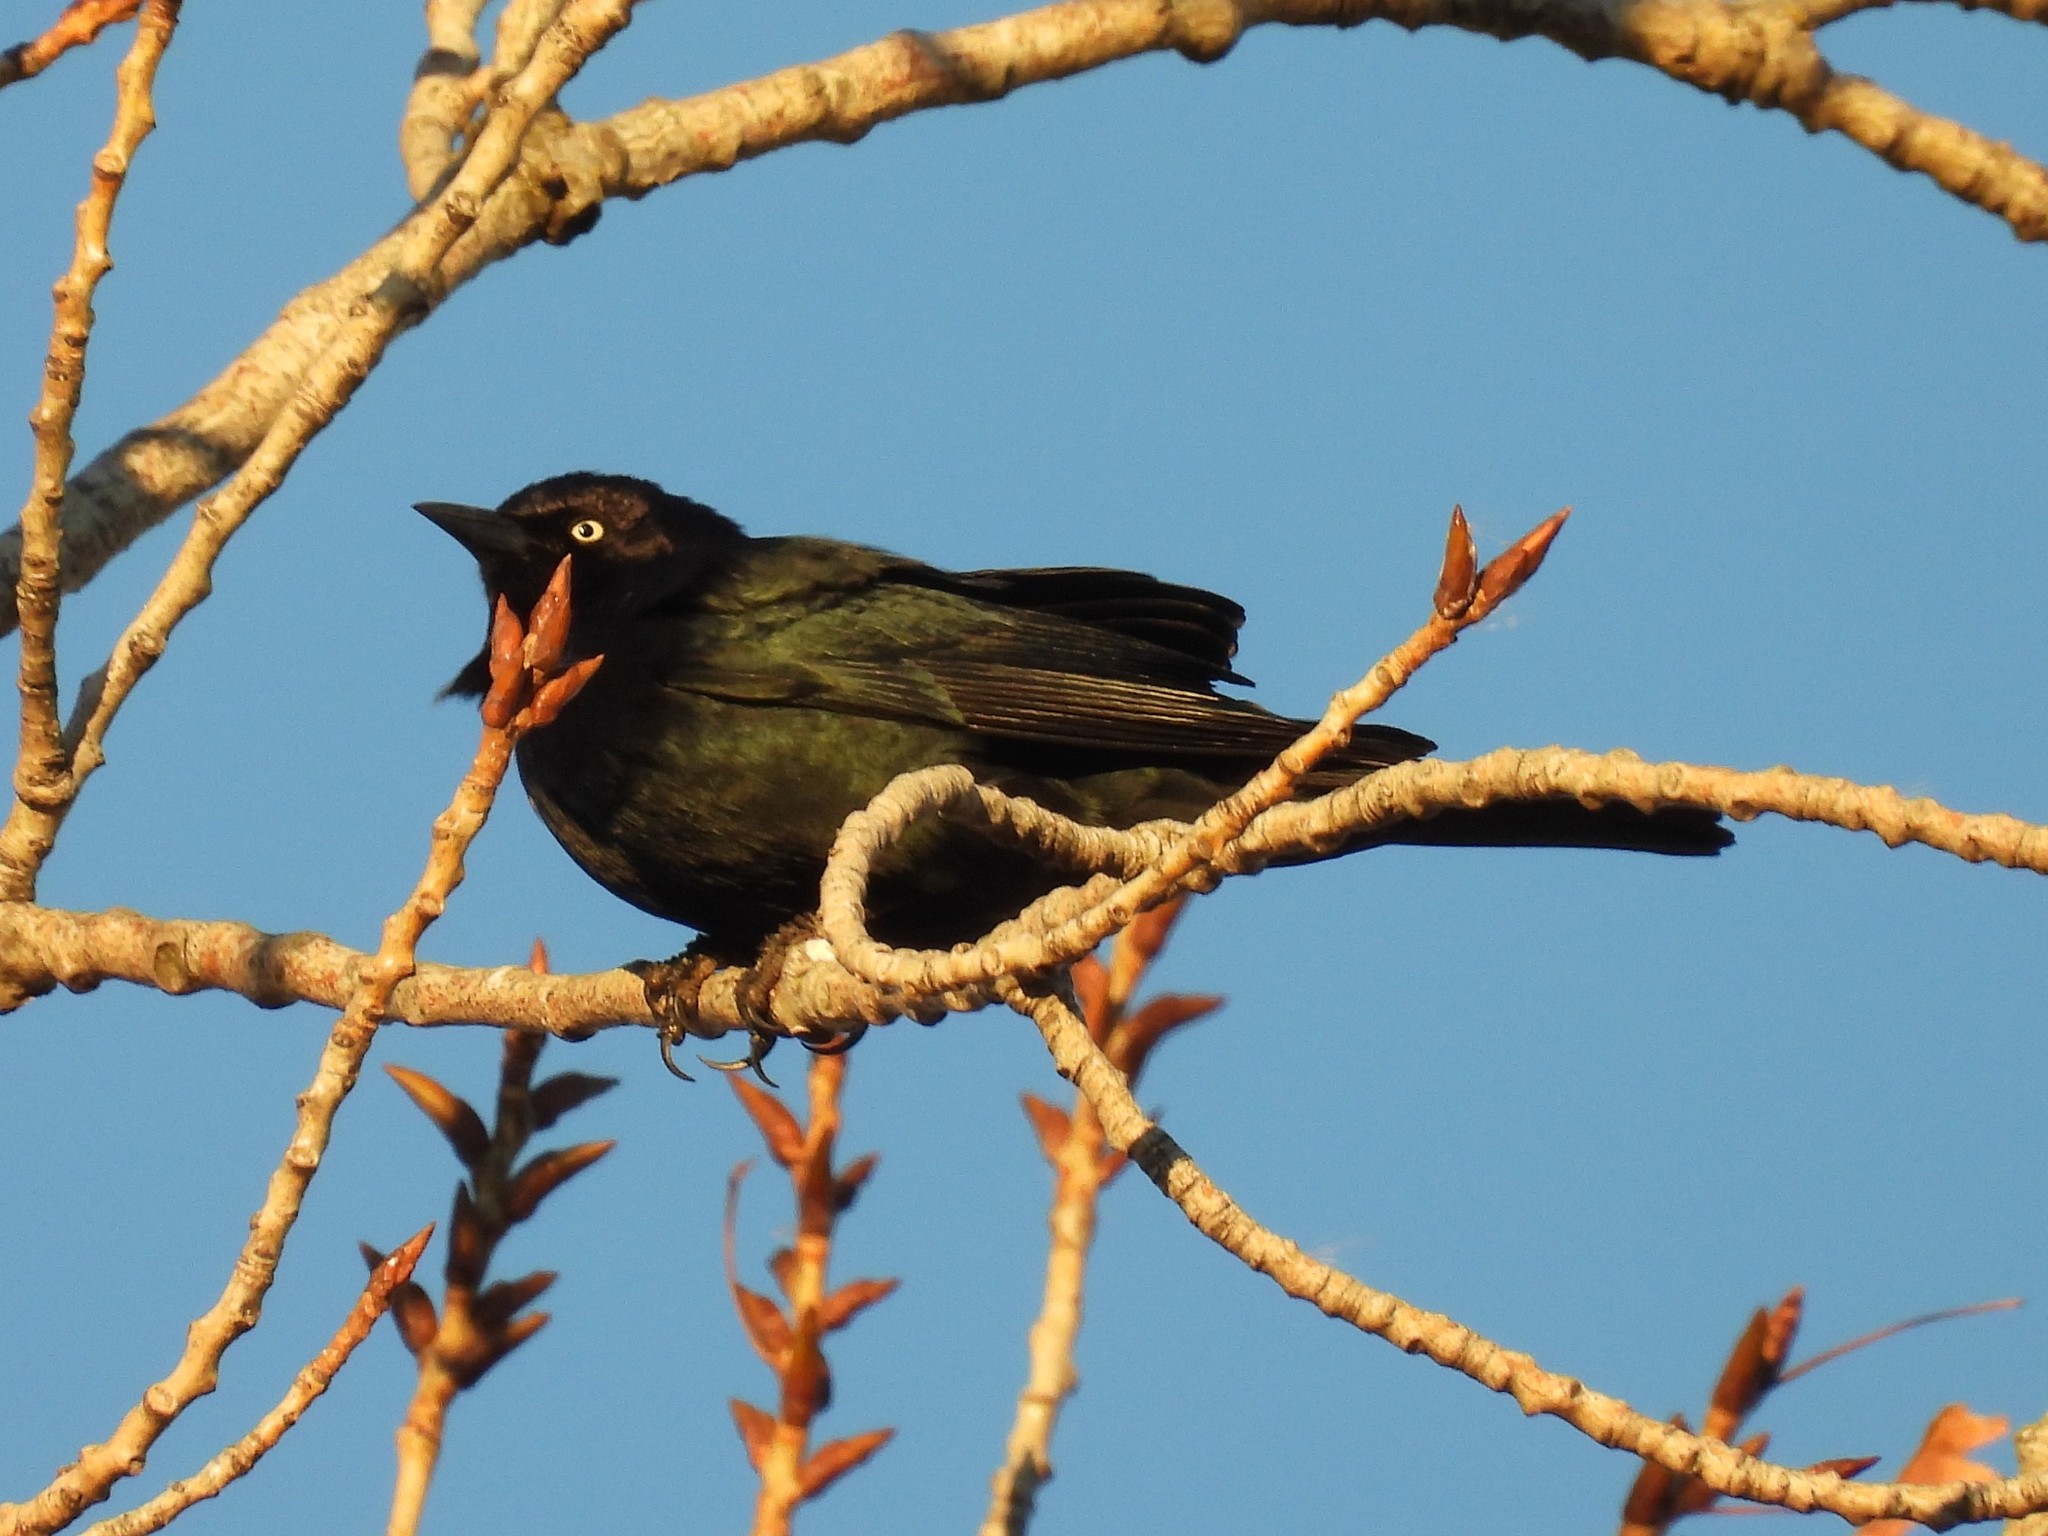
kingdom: Animalia
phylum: Chordata
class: Aves
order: Passeriformes
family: Icteridae
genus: Euphagus
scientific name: Euphagus cyanocephalus
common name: Brewer's blackbird
